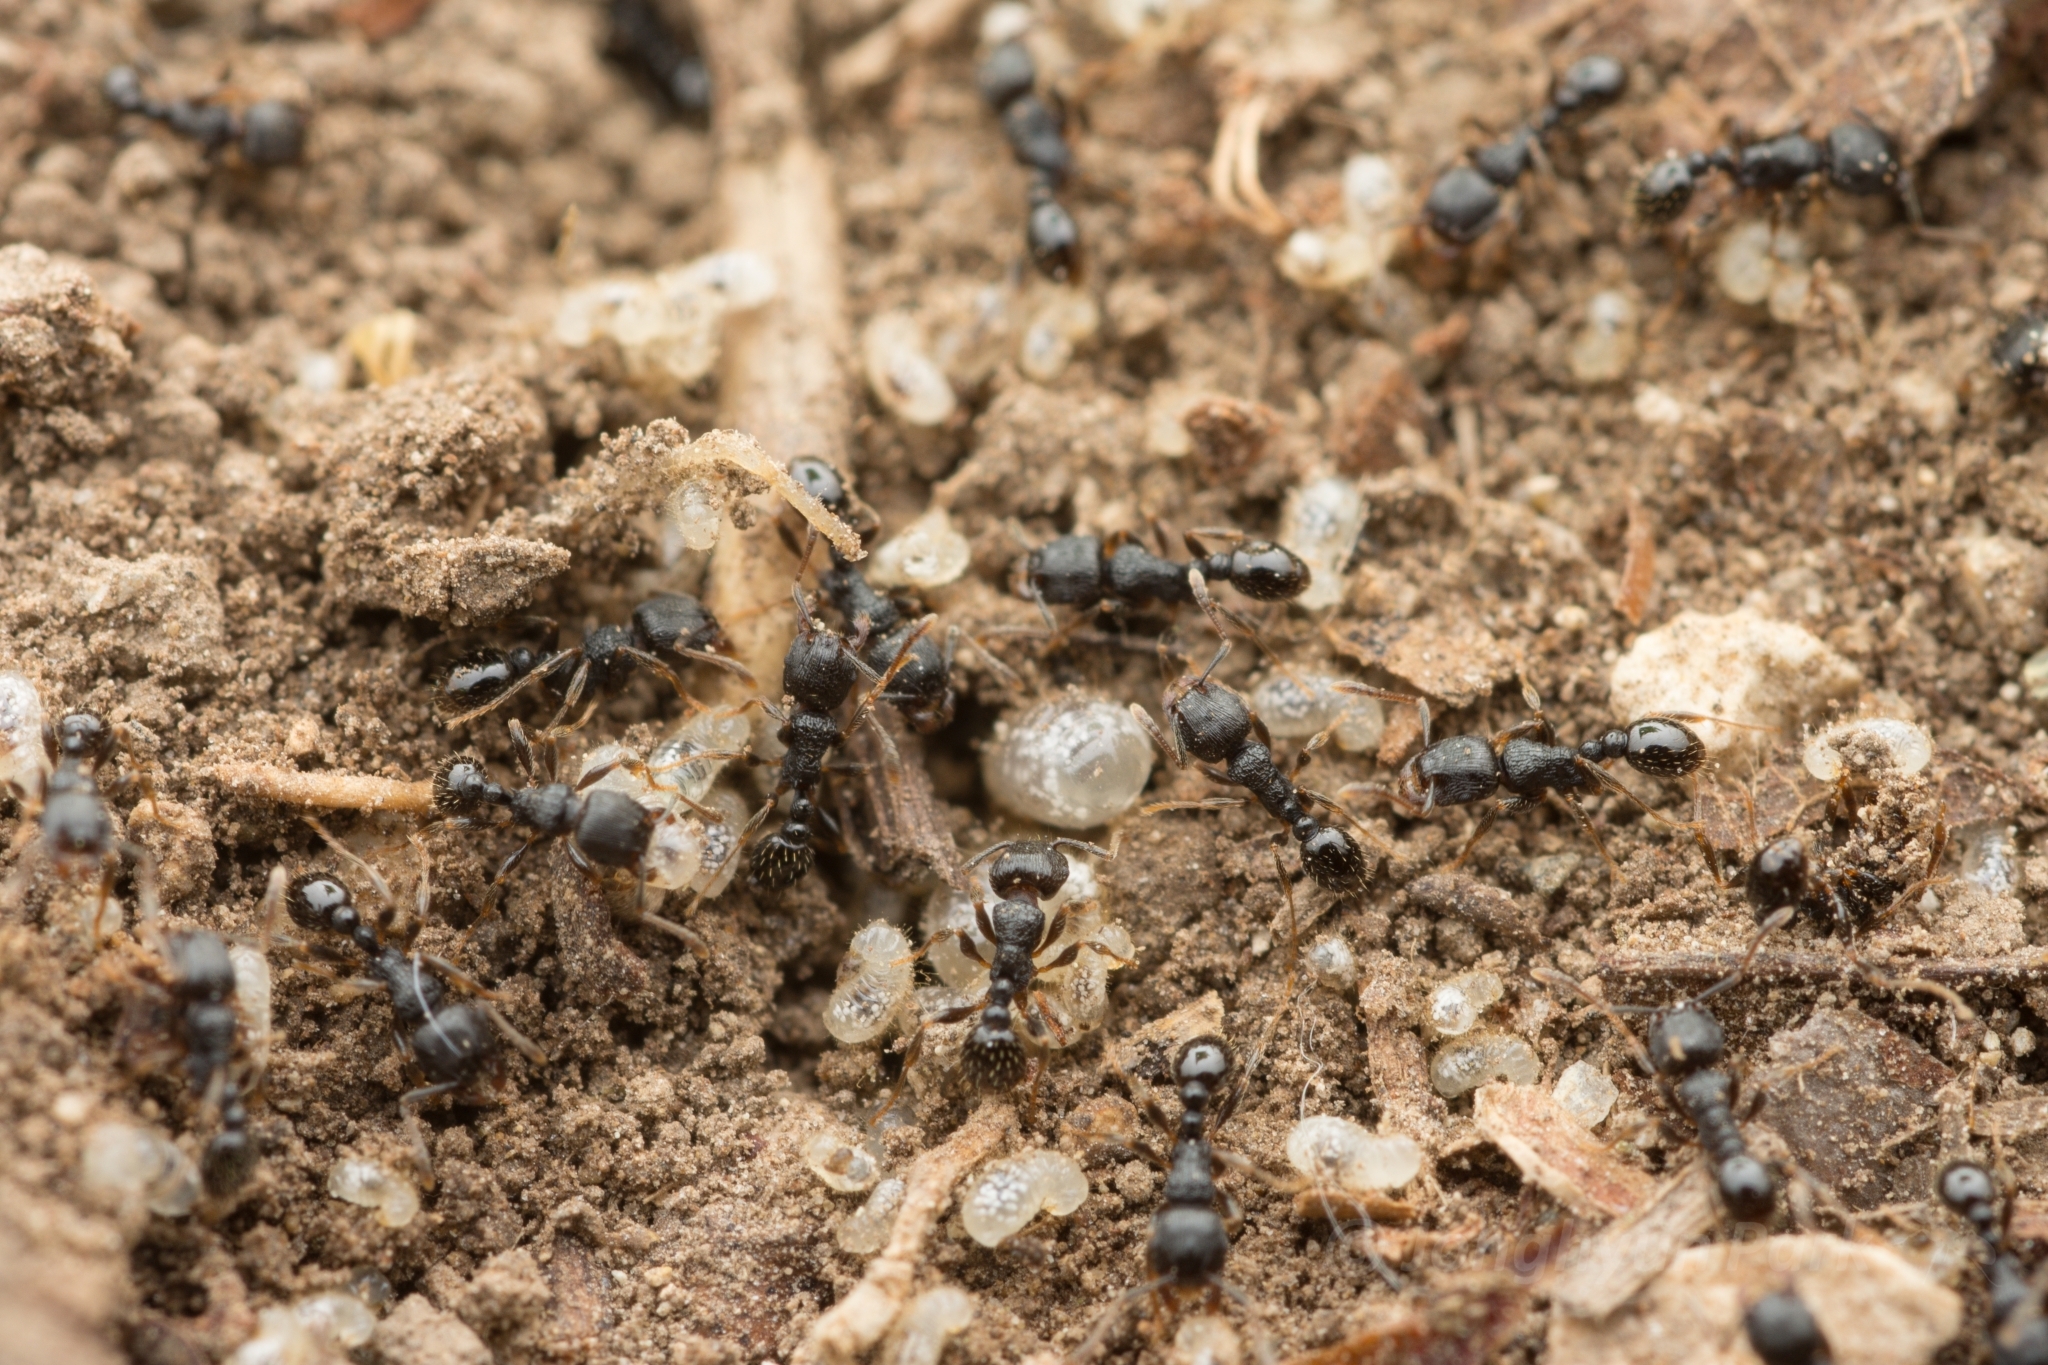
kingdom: Animalia
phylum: Arthropoda
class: Insecta
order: Hymenoptera
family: Formicidae
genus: Tetramorium
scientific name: Tetramorium tsushimae
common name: Ant
